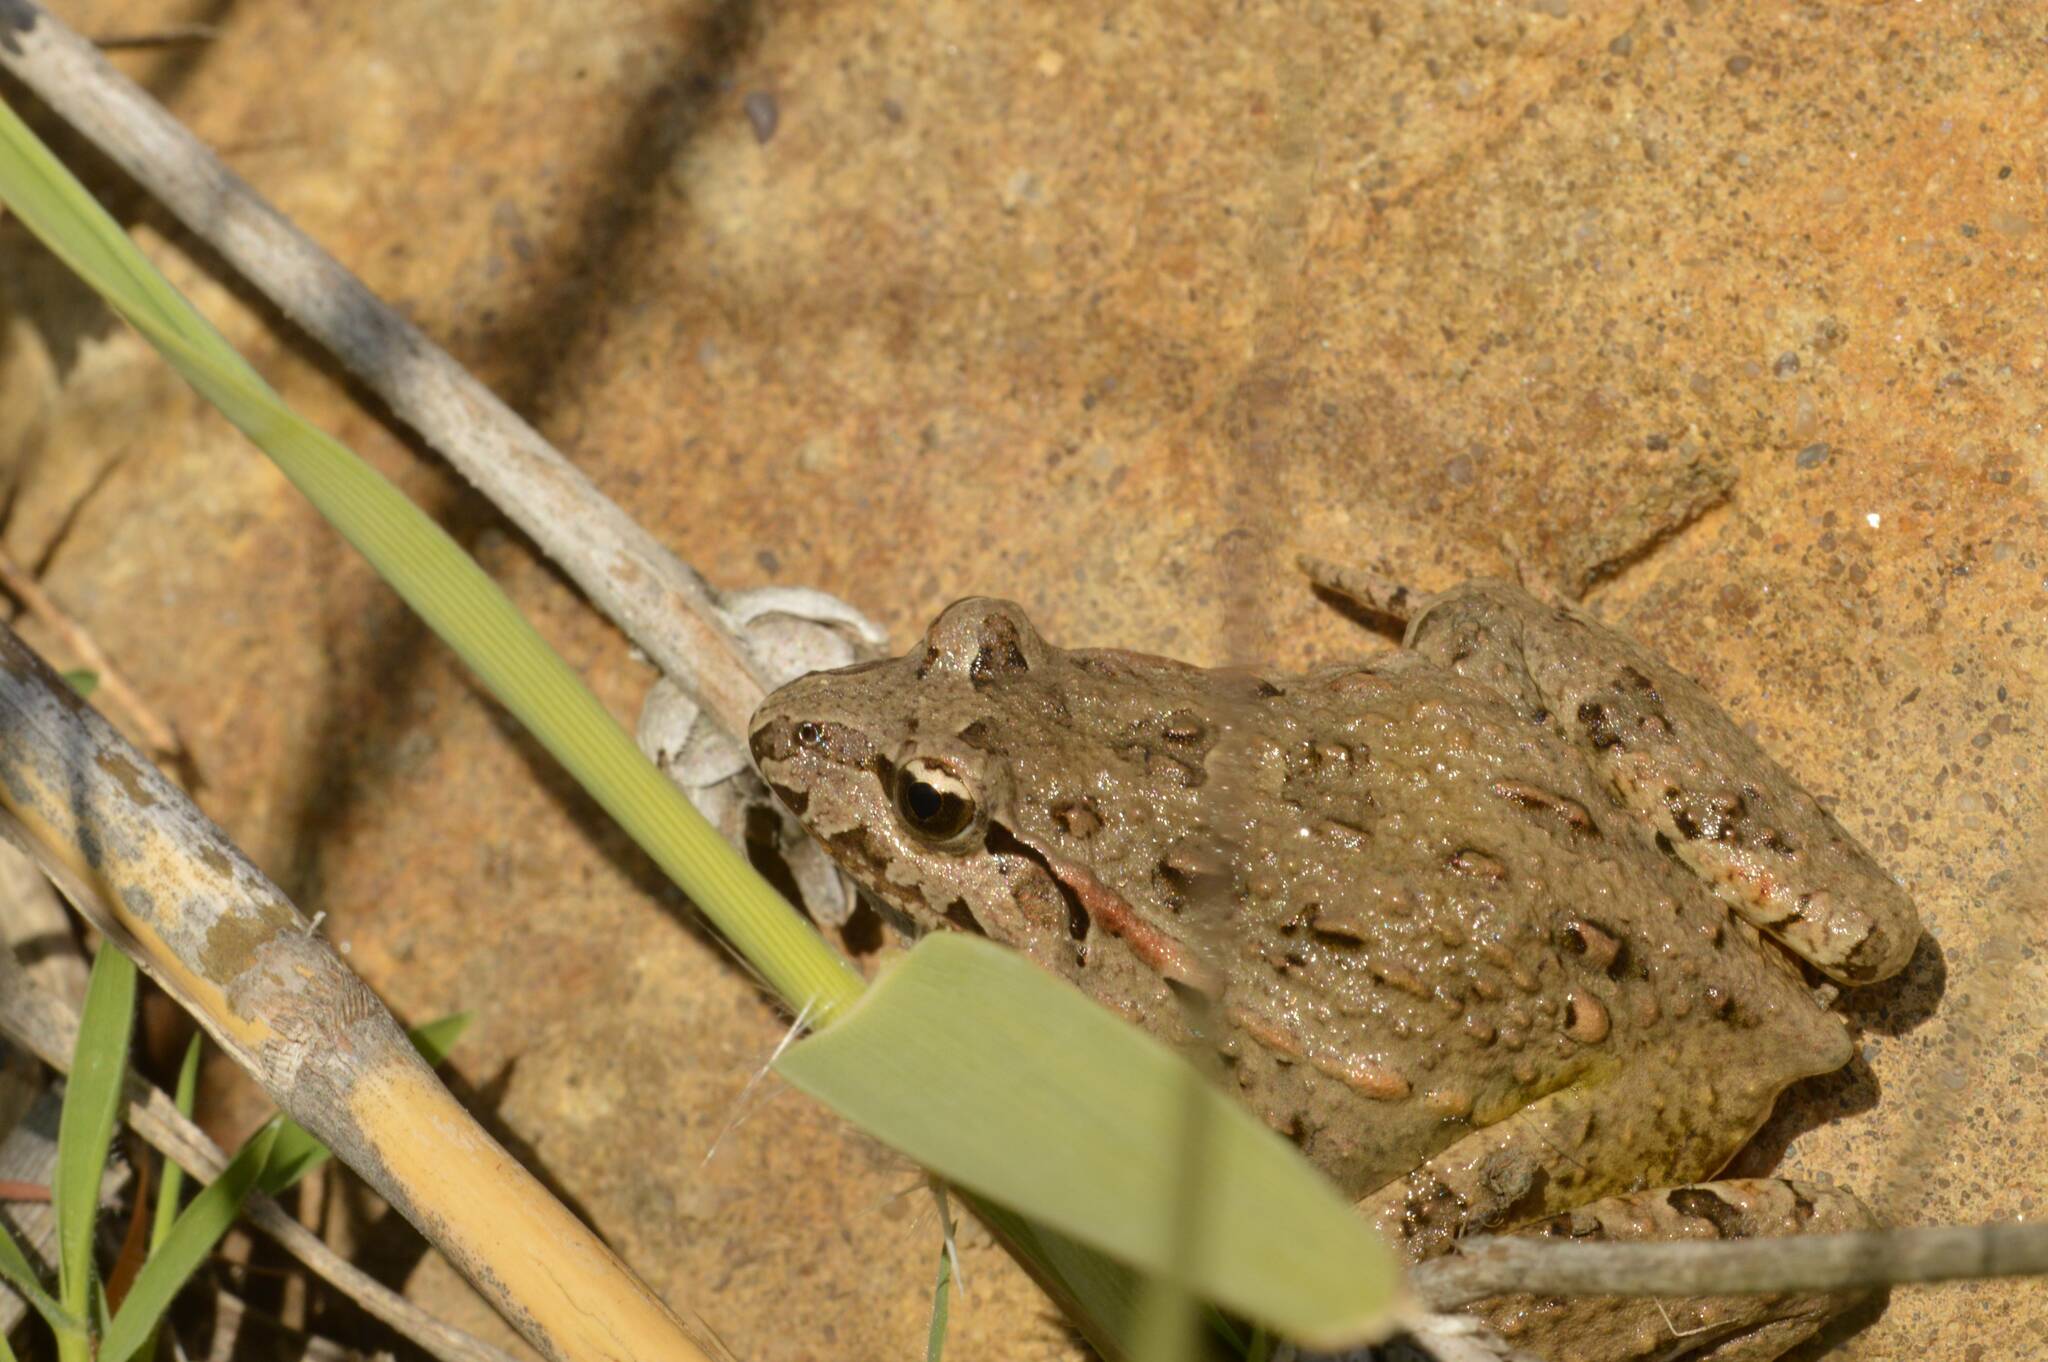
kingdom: Animalia
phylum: Chordata
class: Amphibia
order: Anura
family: Alytidae
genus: Discoglossus
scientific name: Discoglossus pictus
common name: Painted frog
